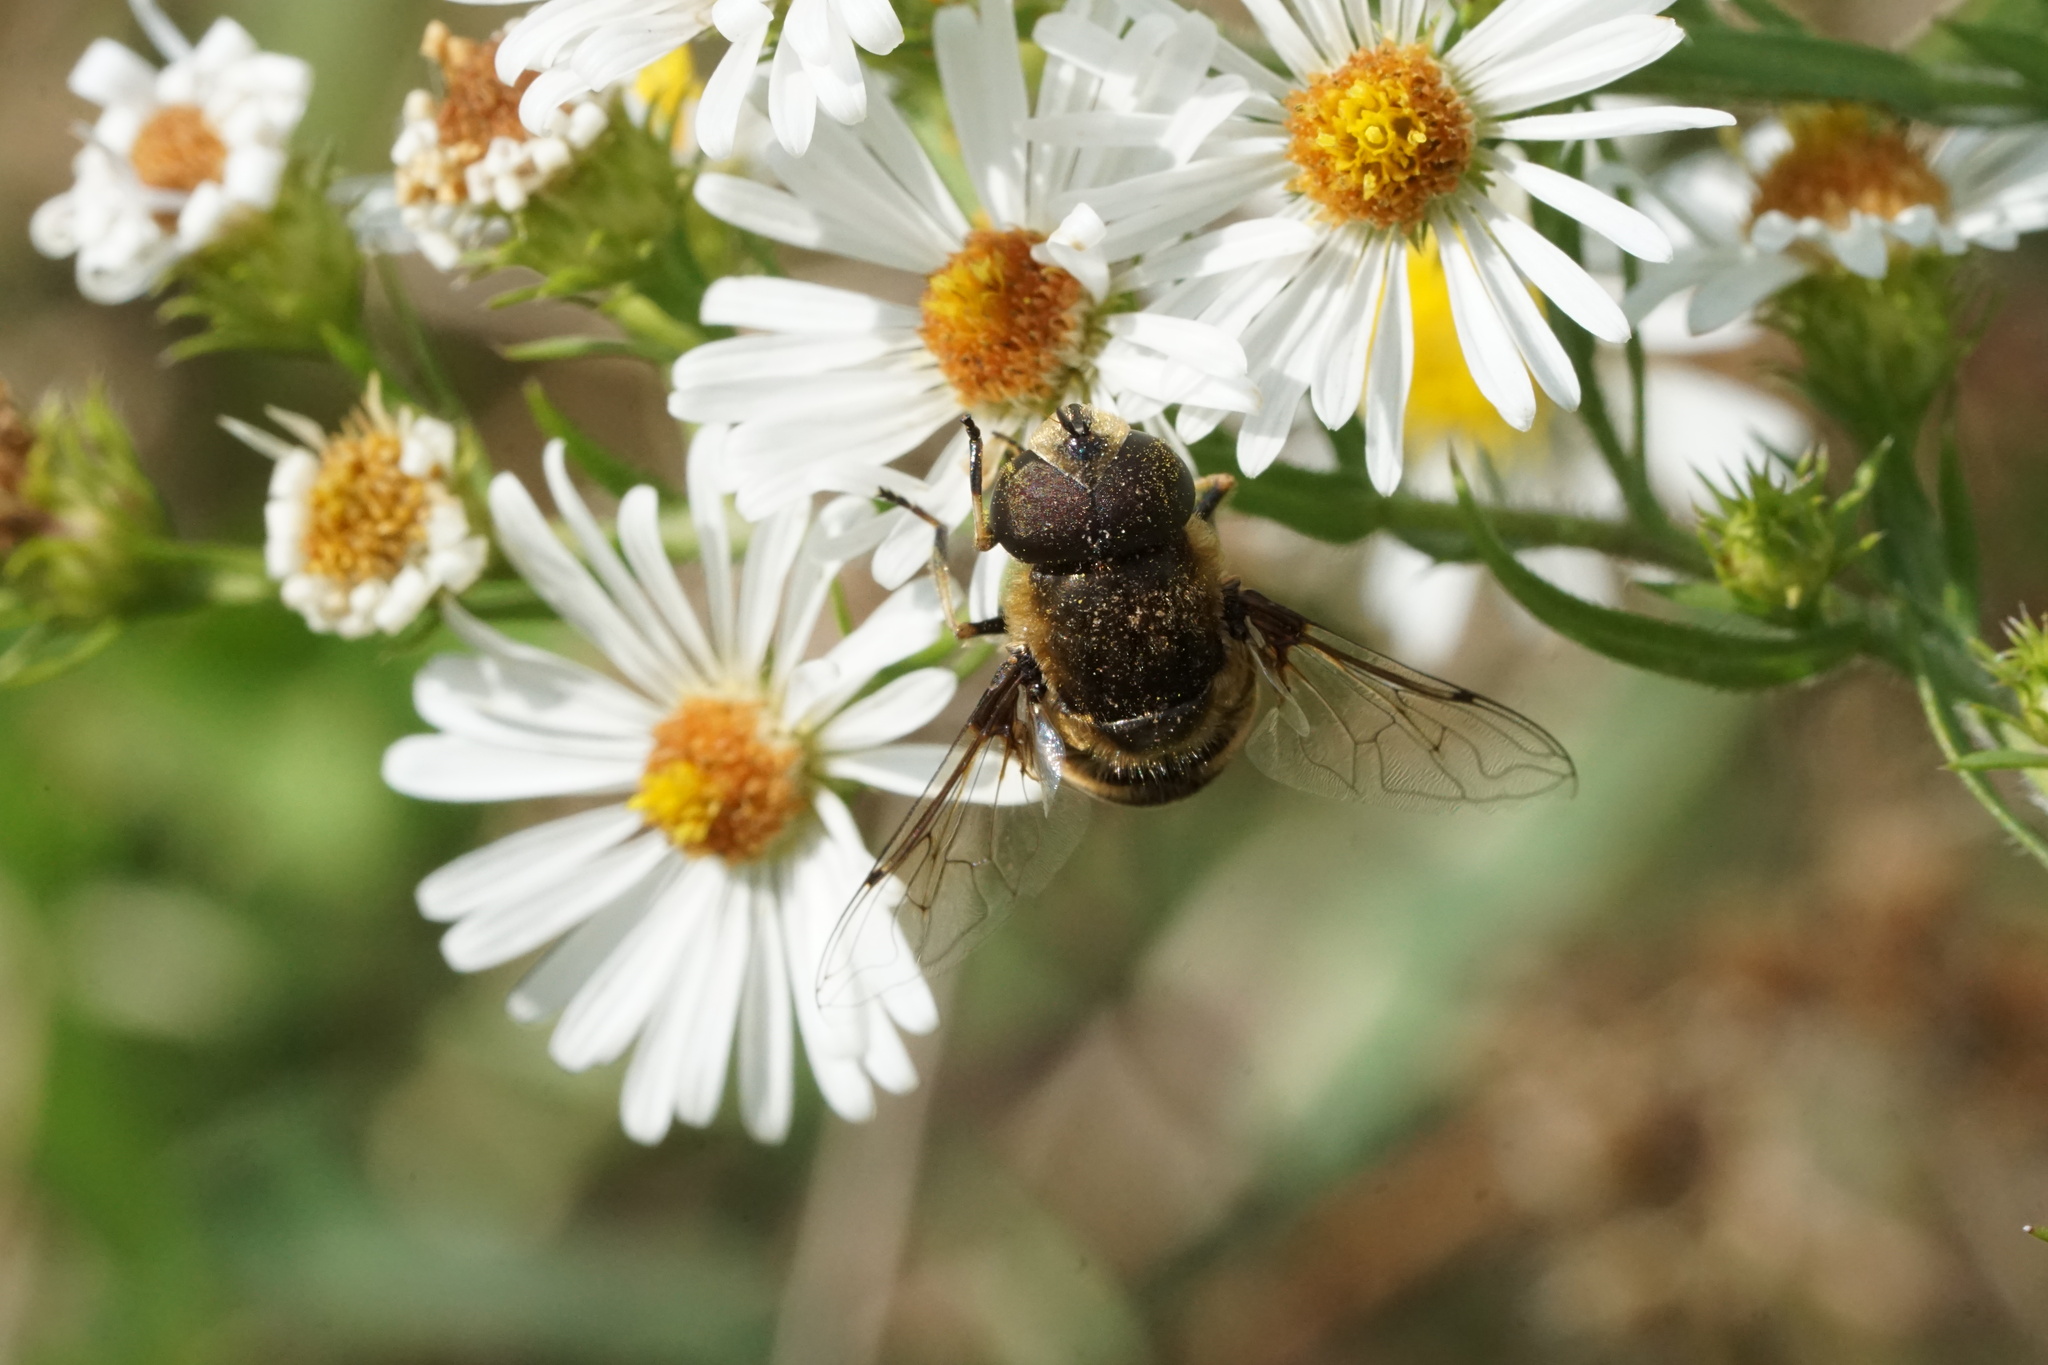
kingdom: Animalia
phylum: Arthropoda
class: Insecta
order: Diptera
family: Syrphidae
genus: Eristalis
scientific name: Eristalis dimidiata
